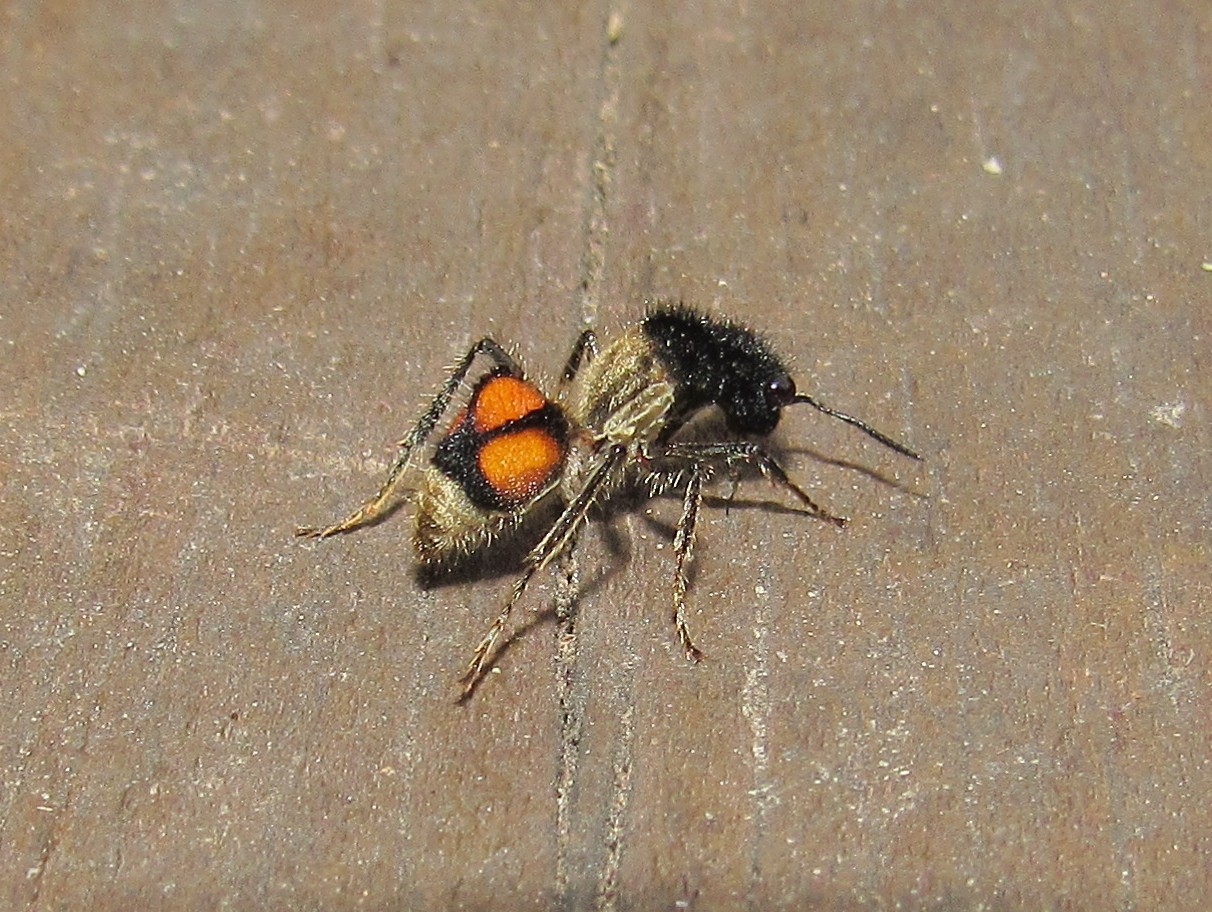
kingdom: Animalia
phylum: Arthropoda
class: Insecta
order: Hymenoptera
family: Mutillidae
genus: Lophomutilla
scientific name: Lophomutilla prionophora
